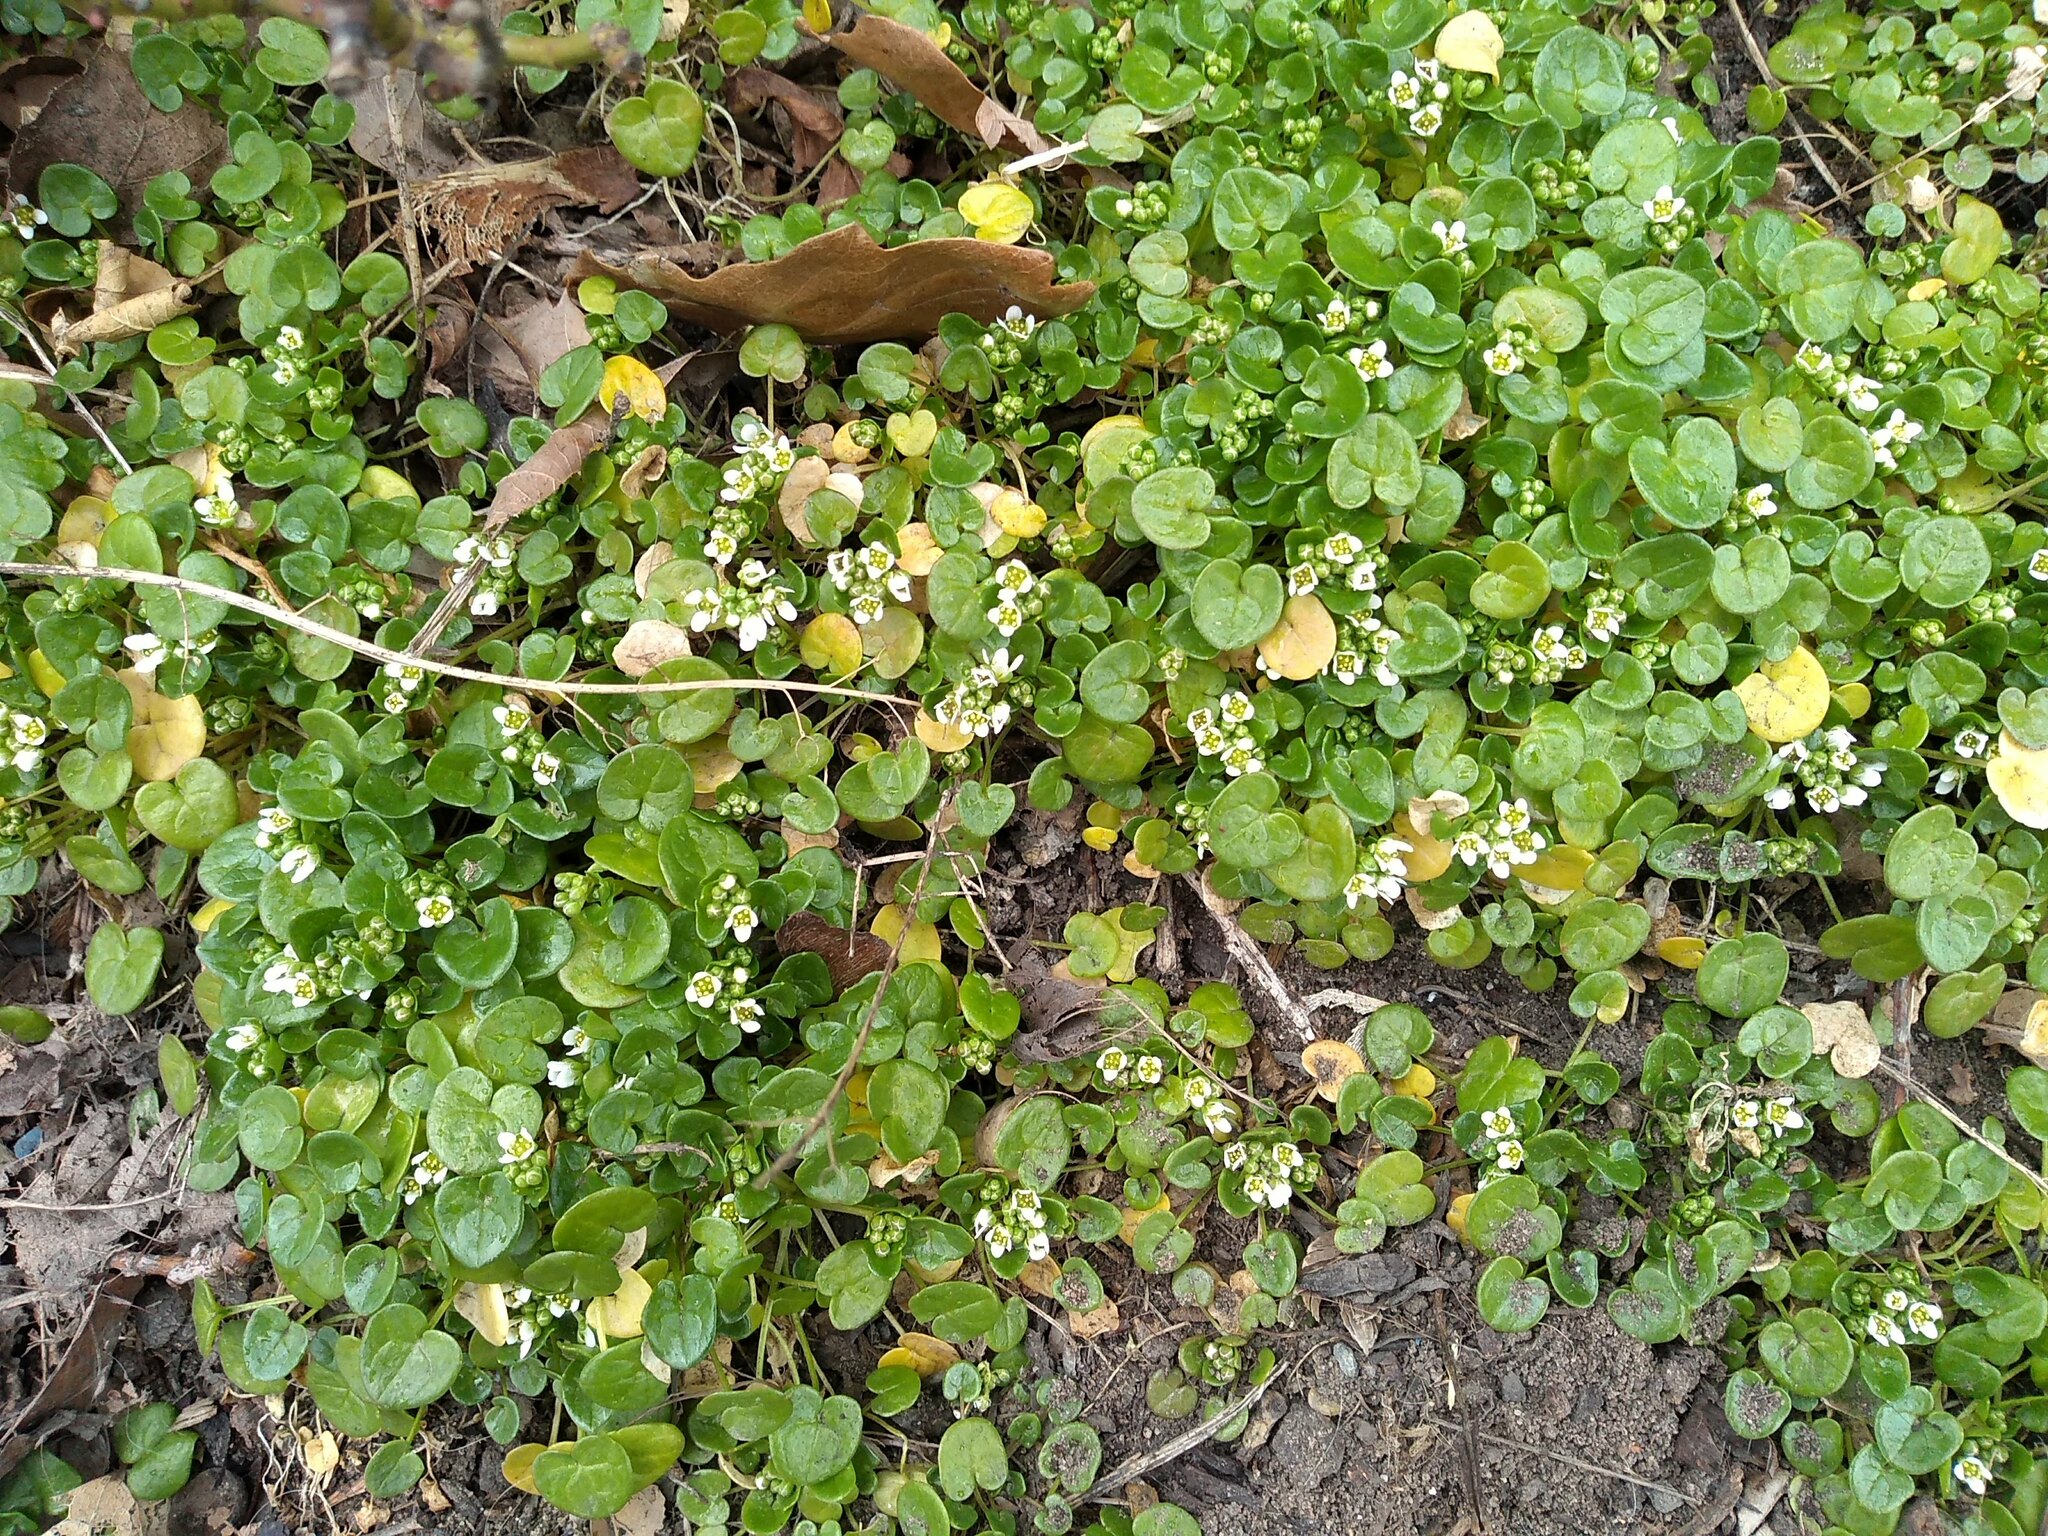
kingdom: Plantae
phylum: Tracheophyta
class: Magnoliopsida
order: Brassicales
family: Brassicaceae
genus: Cochlearia
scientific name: Cochlearia danica
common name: Early scurvygrass
